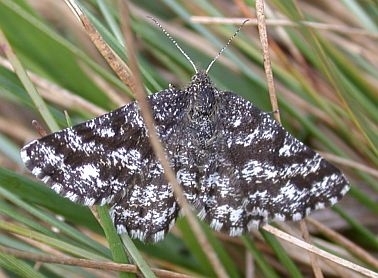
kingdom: Animalia
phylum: Arthropoda
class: Insecta
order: Lepidoptera
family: Geometridae
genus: Ematurga
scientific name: Ematurga atomaria
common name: Common heath
